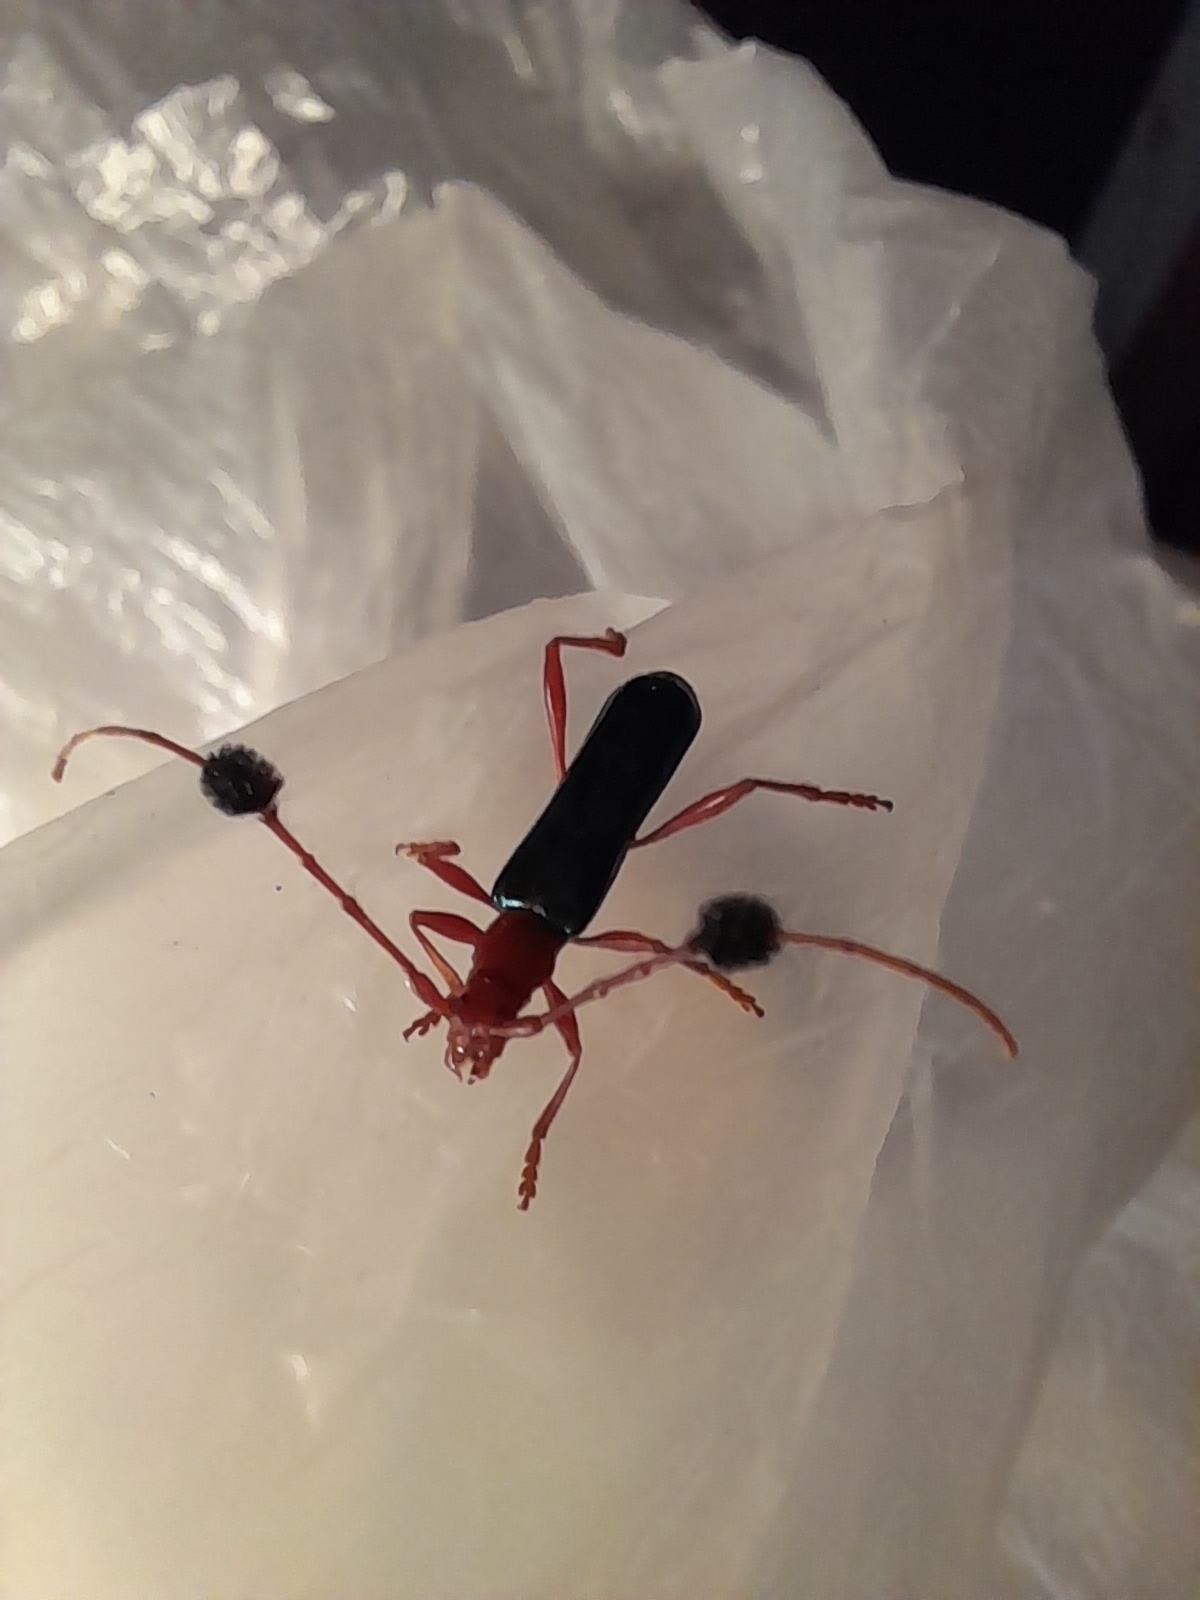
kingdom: Animalia
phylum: Arthropoda
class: Insecta
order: Coleoptera
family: Cerambycidae
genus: Paromoeocerus
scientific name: Paromoeocerus barbicornis
